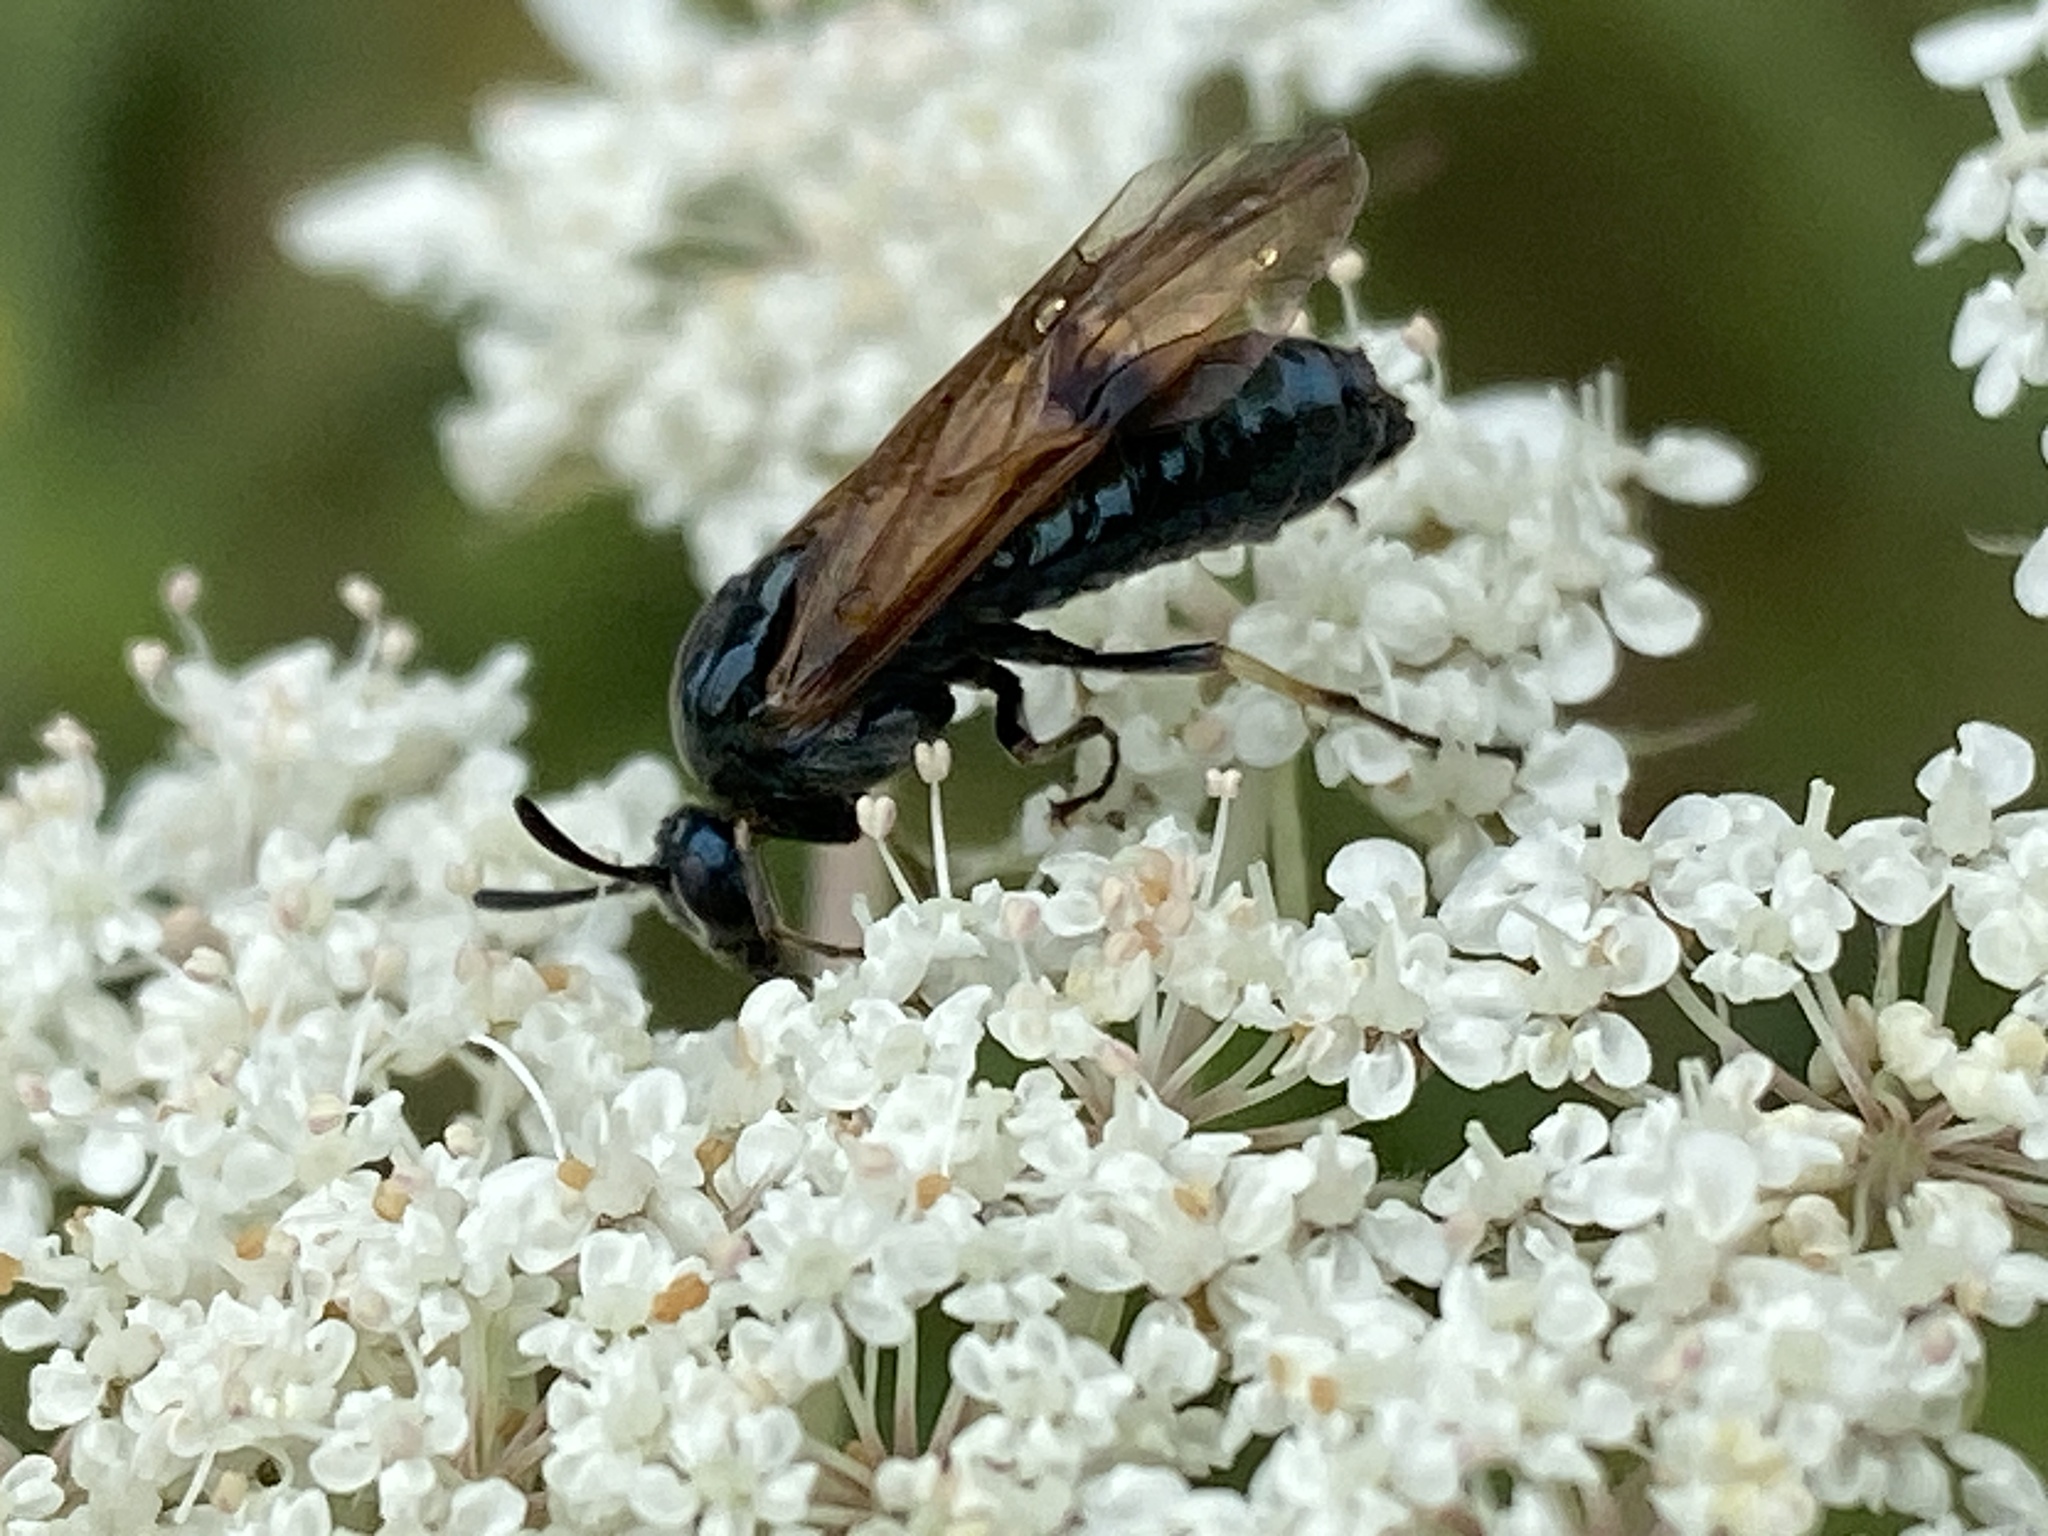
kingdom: Animalia
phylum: Arthropoda
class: Insecta
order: Hymenoptera
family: Argidae
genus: Arge
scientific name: Arge ustulata
